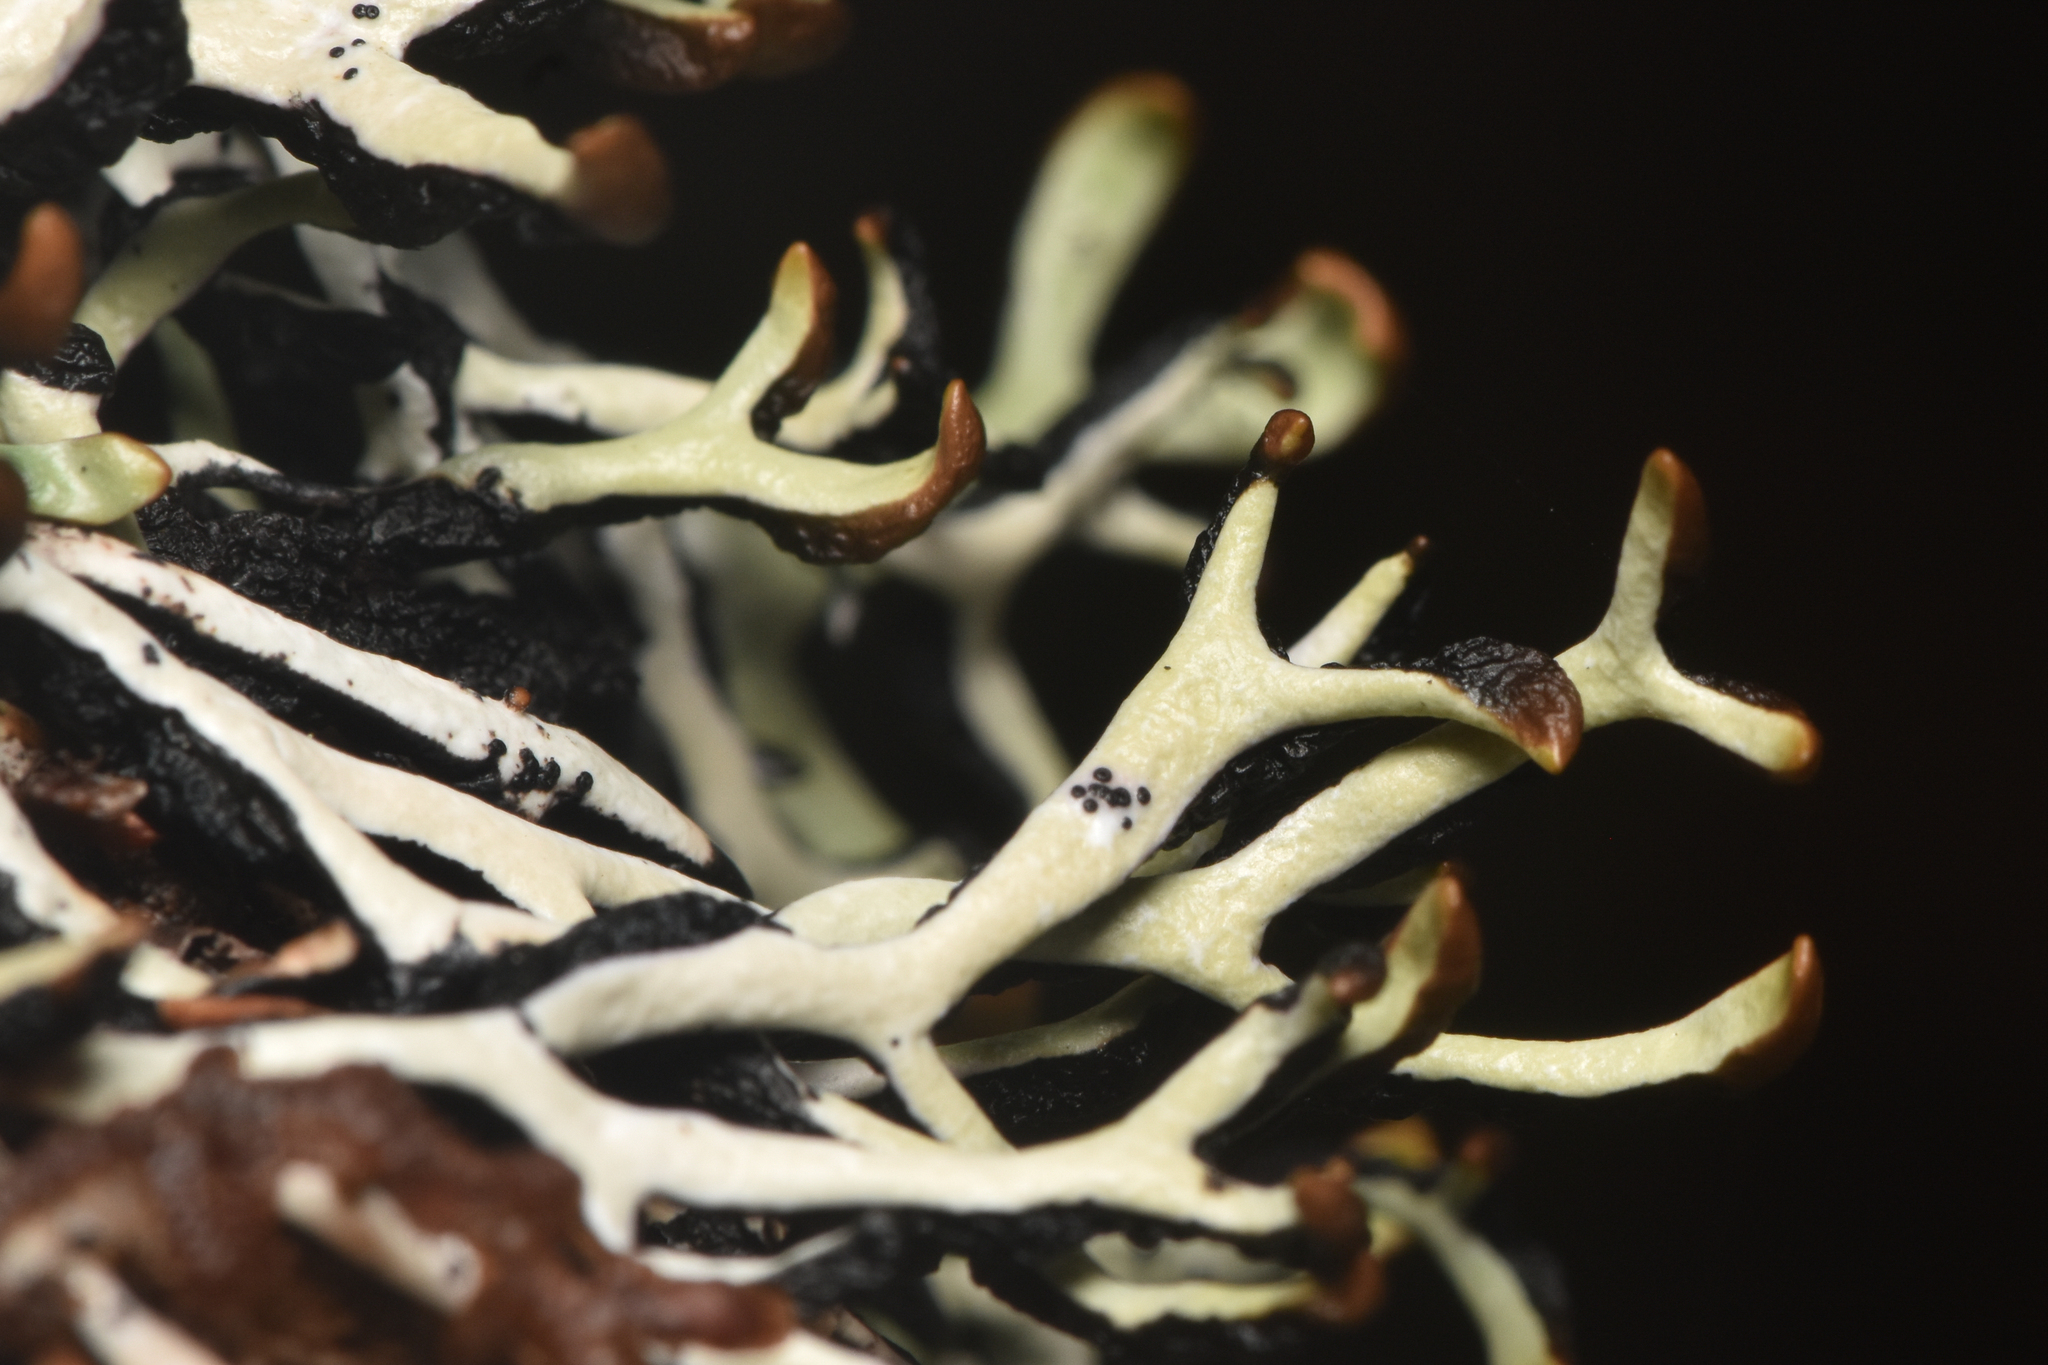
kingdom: Fungi
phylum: Ascomycota
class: Lecanoromycetes
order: Lecanorales
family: Parmeliaceae
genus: Hypogymnia
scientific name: Hypogymnia duplicata
